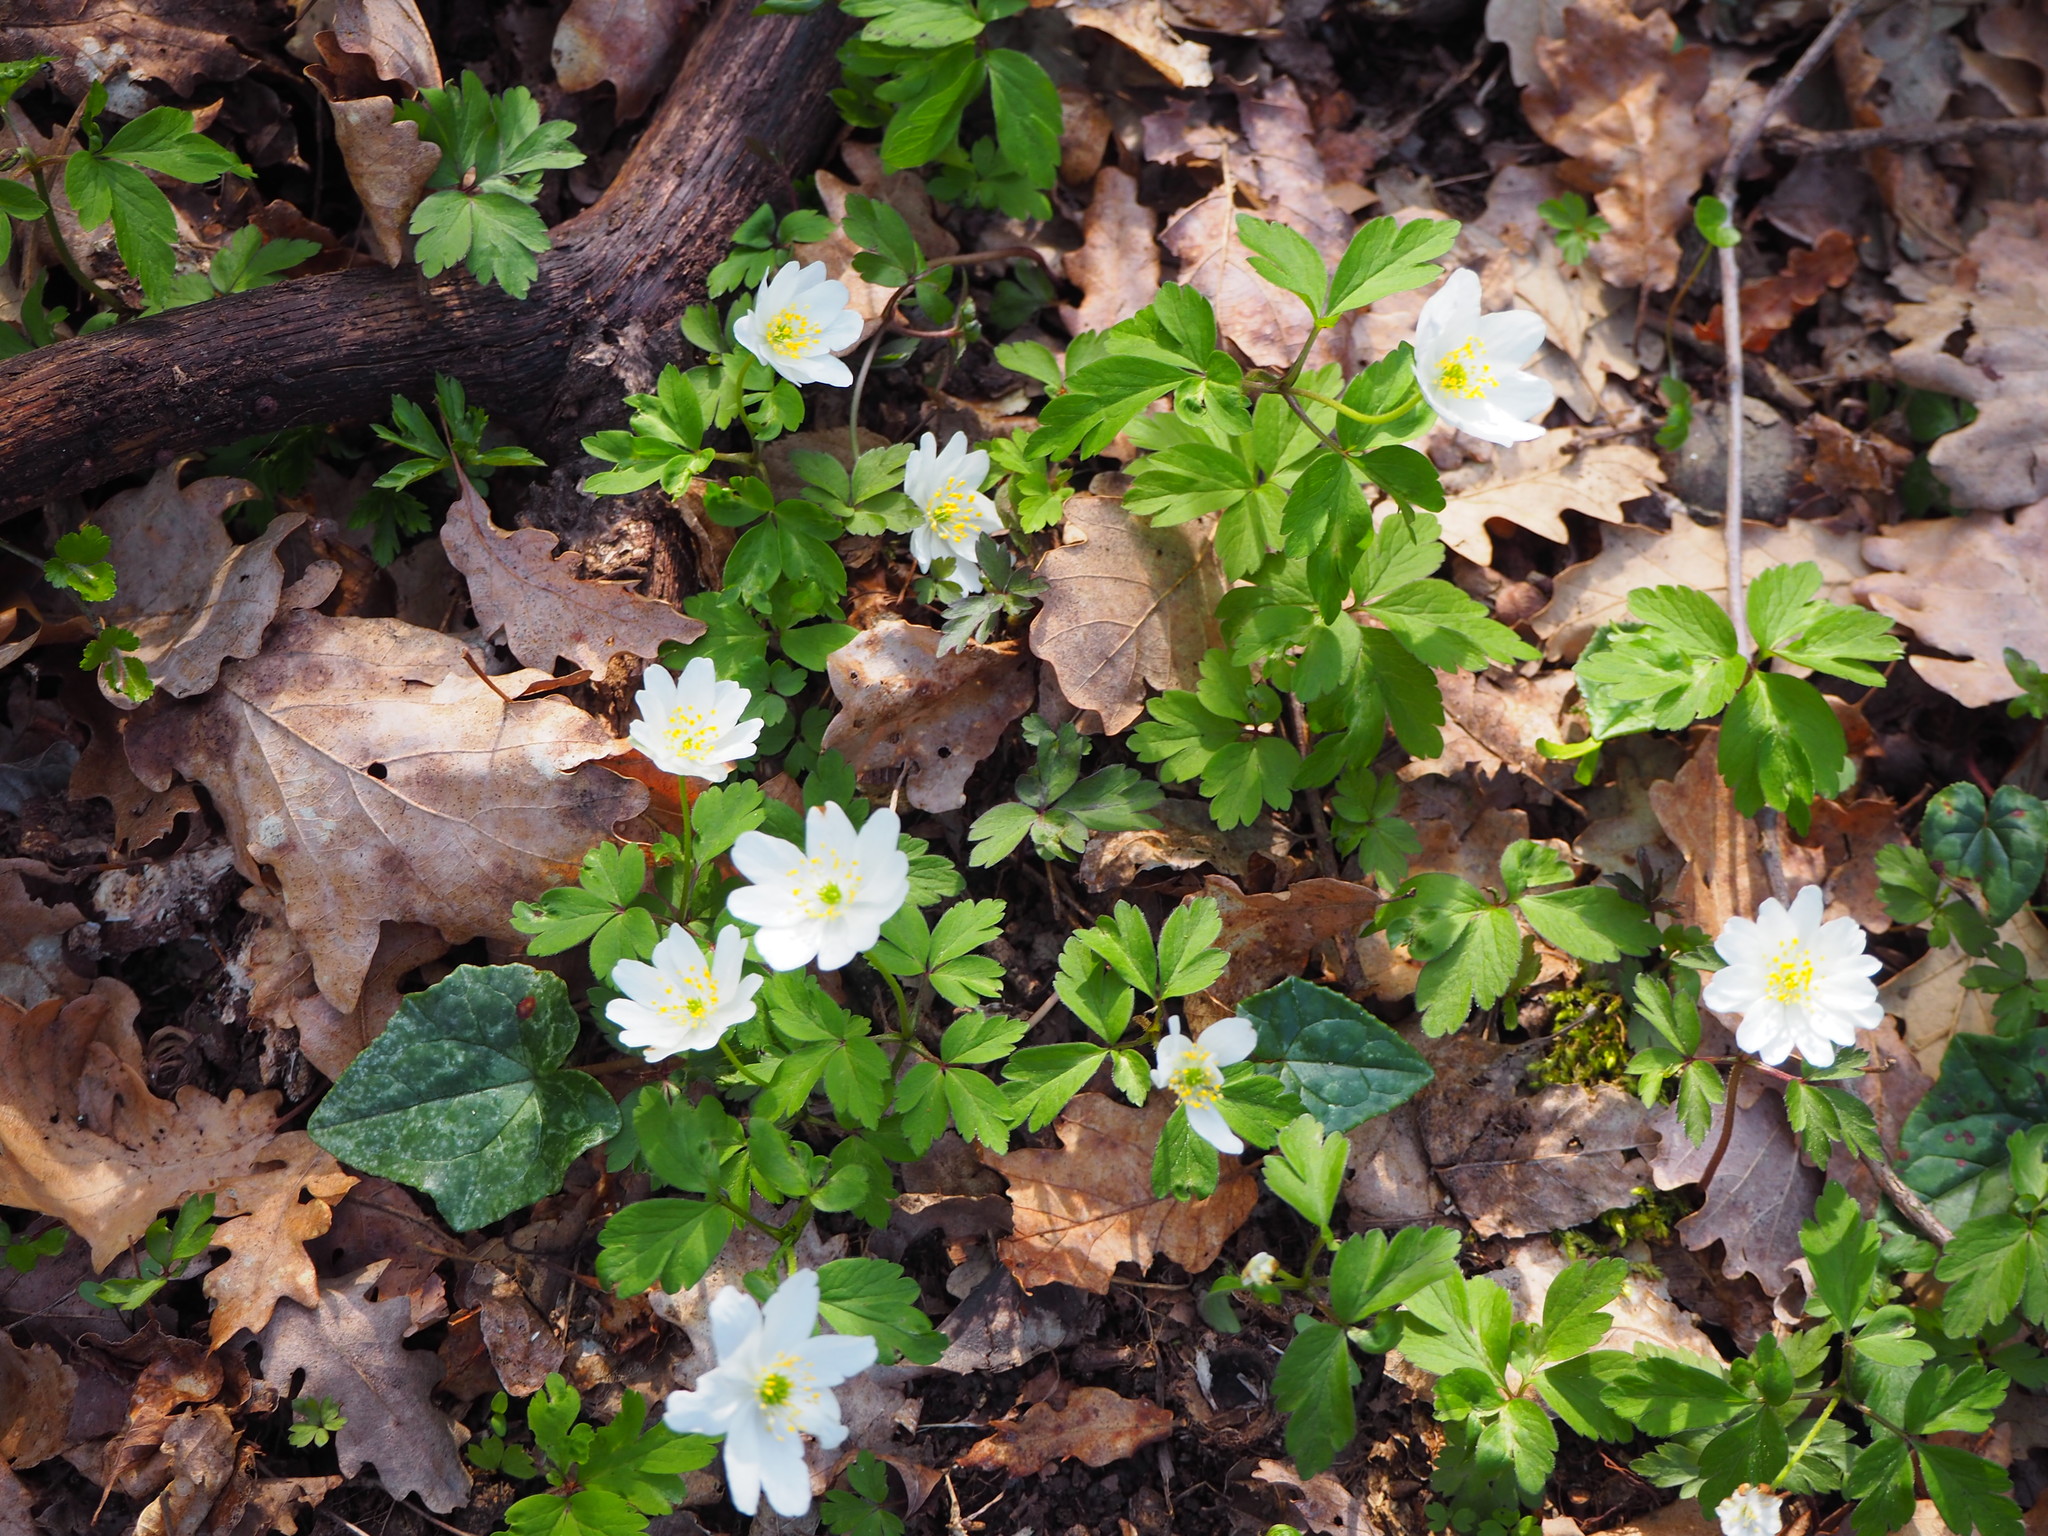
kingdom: Plantae
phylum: Tracheophyta
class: Magnoliopsida
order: Ranunculales
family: Ranunculaceae
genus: Anemone
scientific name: Anemone nemorosa
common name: Wood anemone
